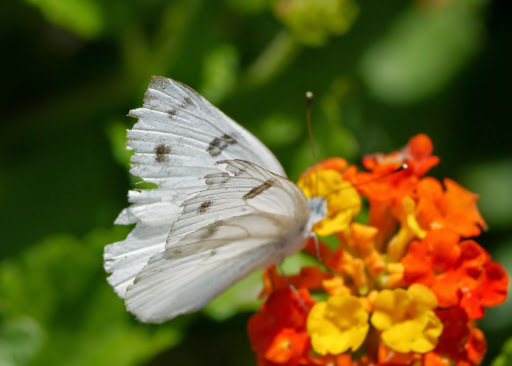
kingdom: Animalia
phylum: Arthropoda
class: Insecta
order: Lepidoptera
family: Pieridae
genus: Pontia
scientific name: Pontia protodice
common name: Checkered white
